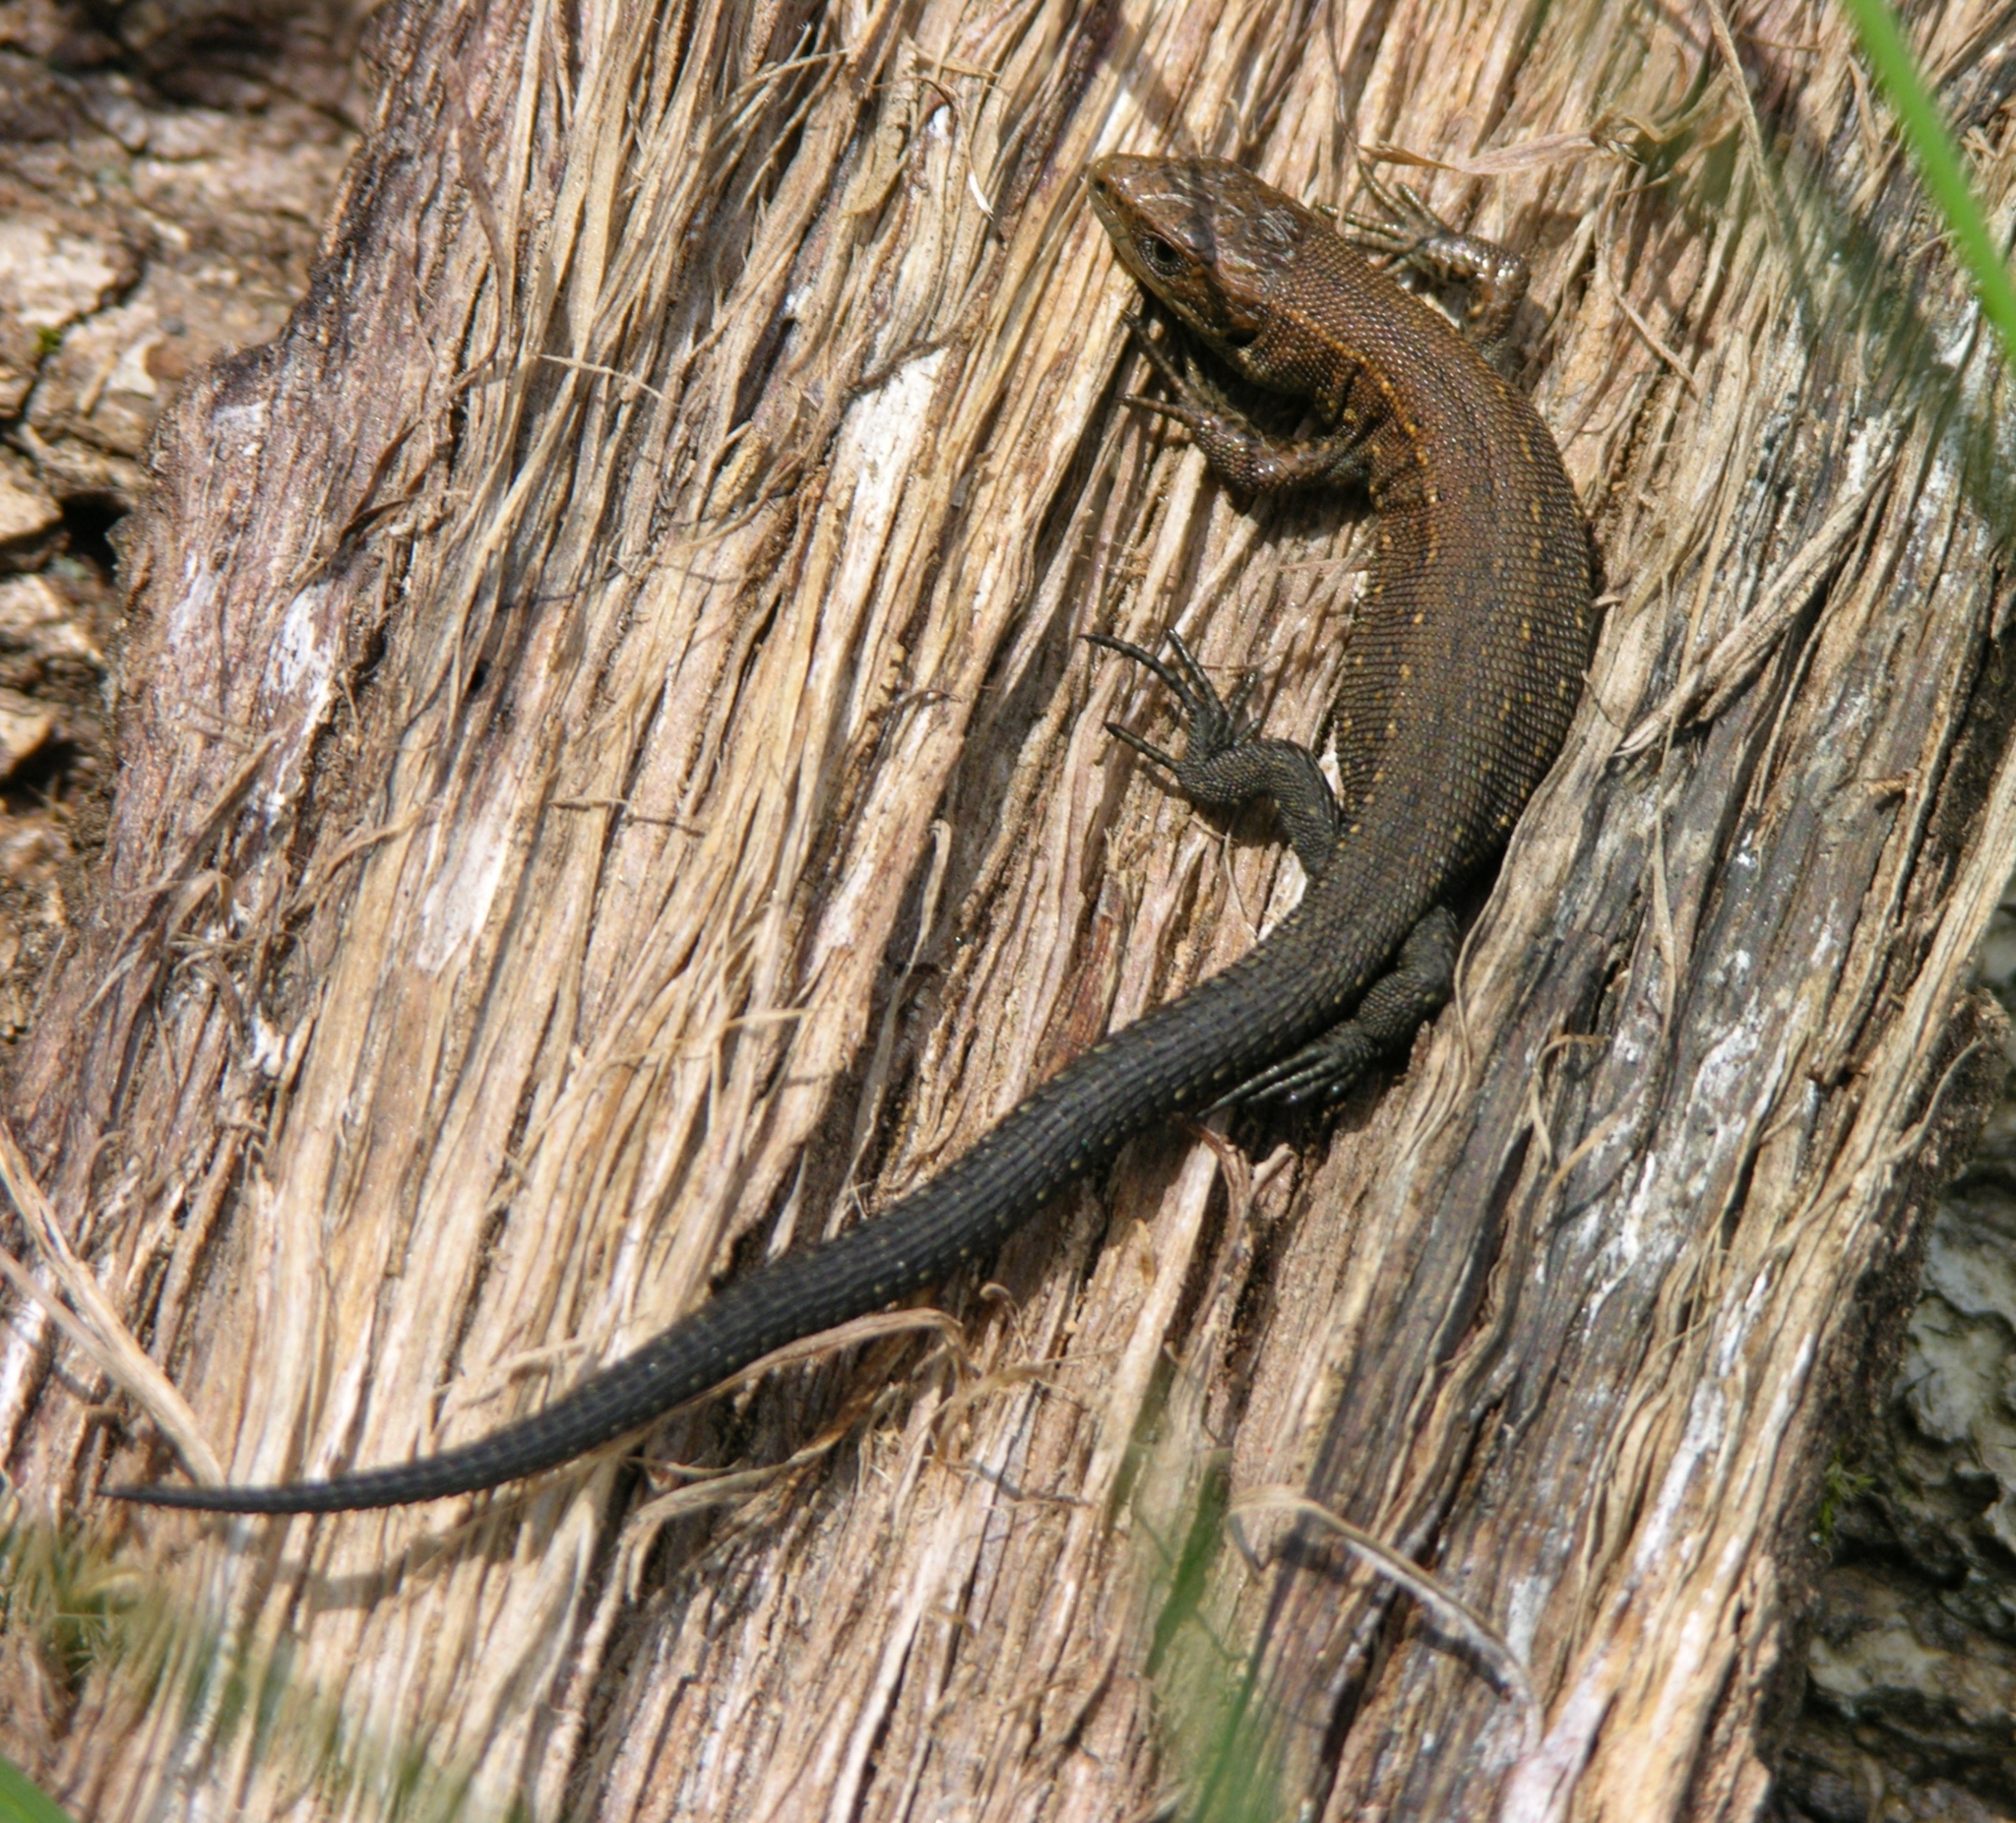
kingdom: Animalia
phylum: Chordata
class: Squamata
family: Lacertidae
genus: Zootoca
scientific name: Zootoca vivipara
